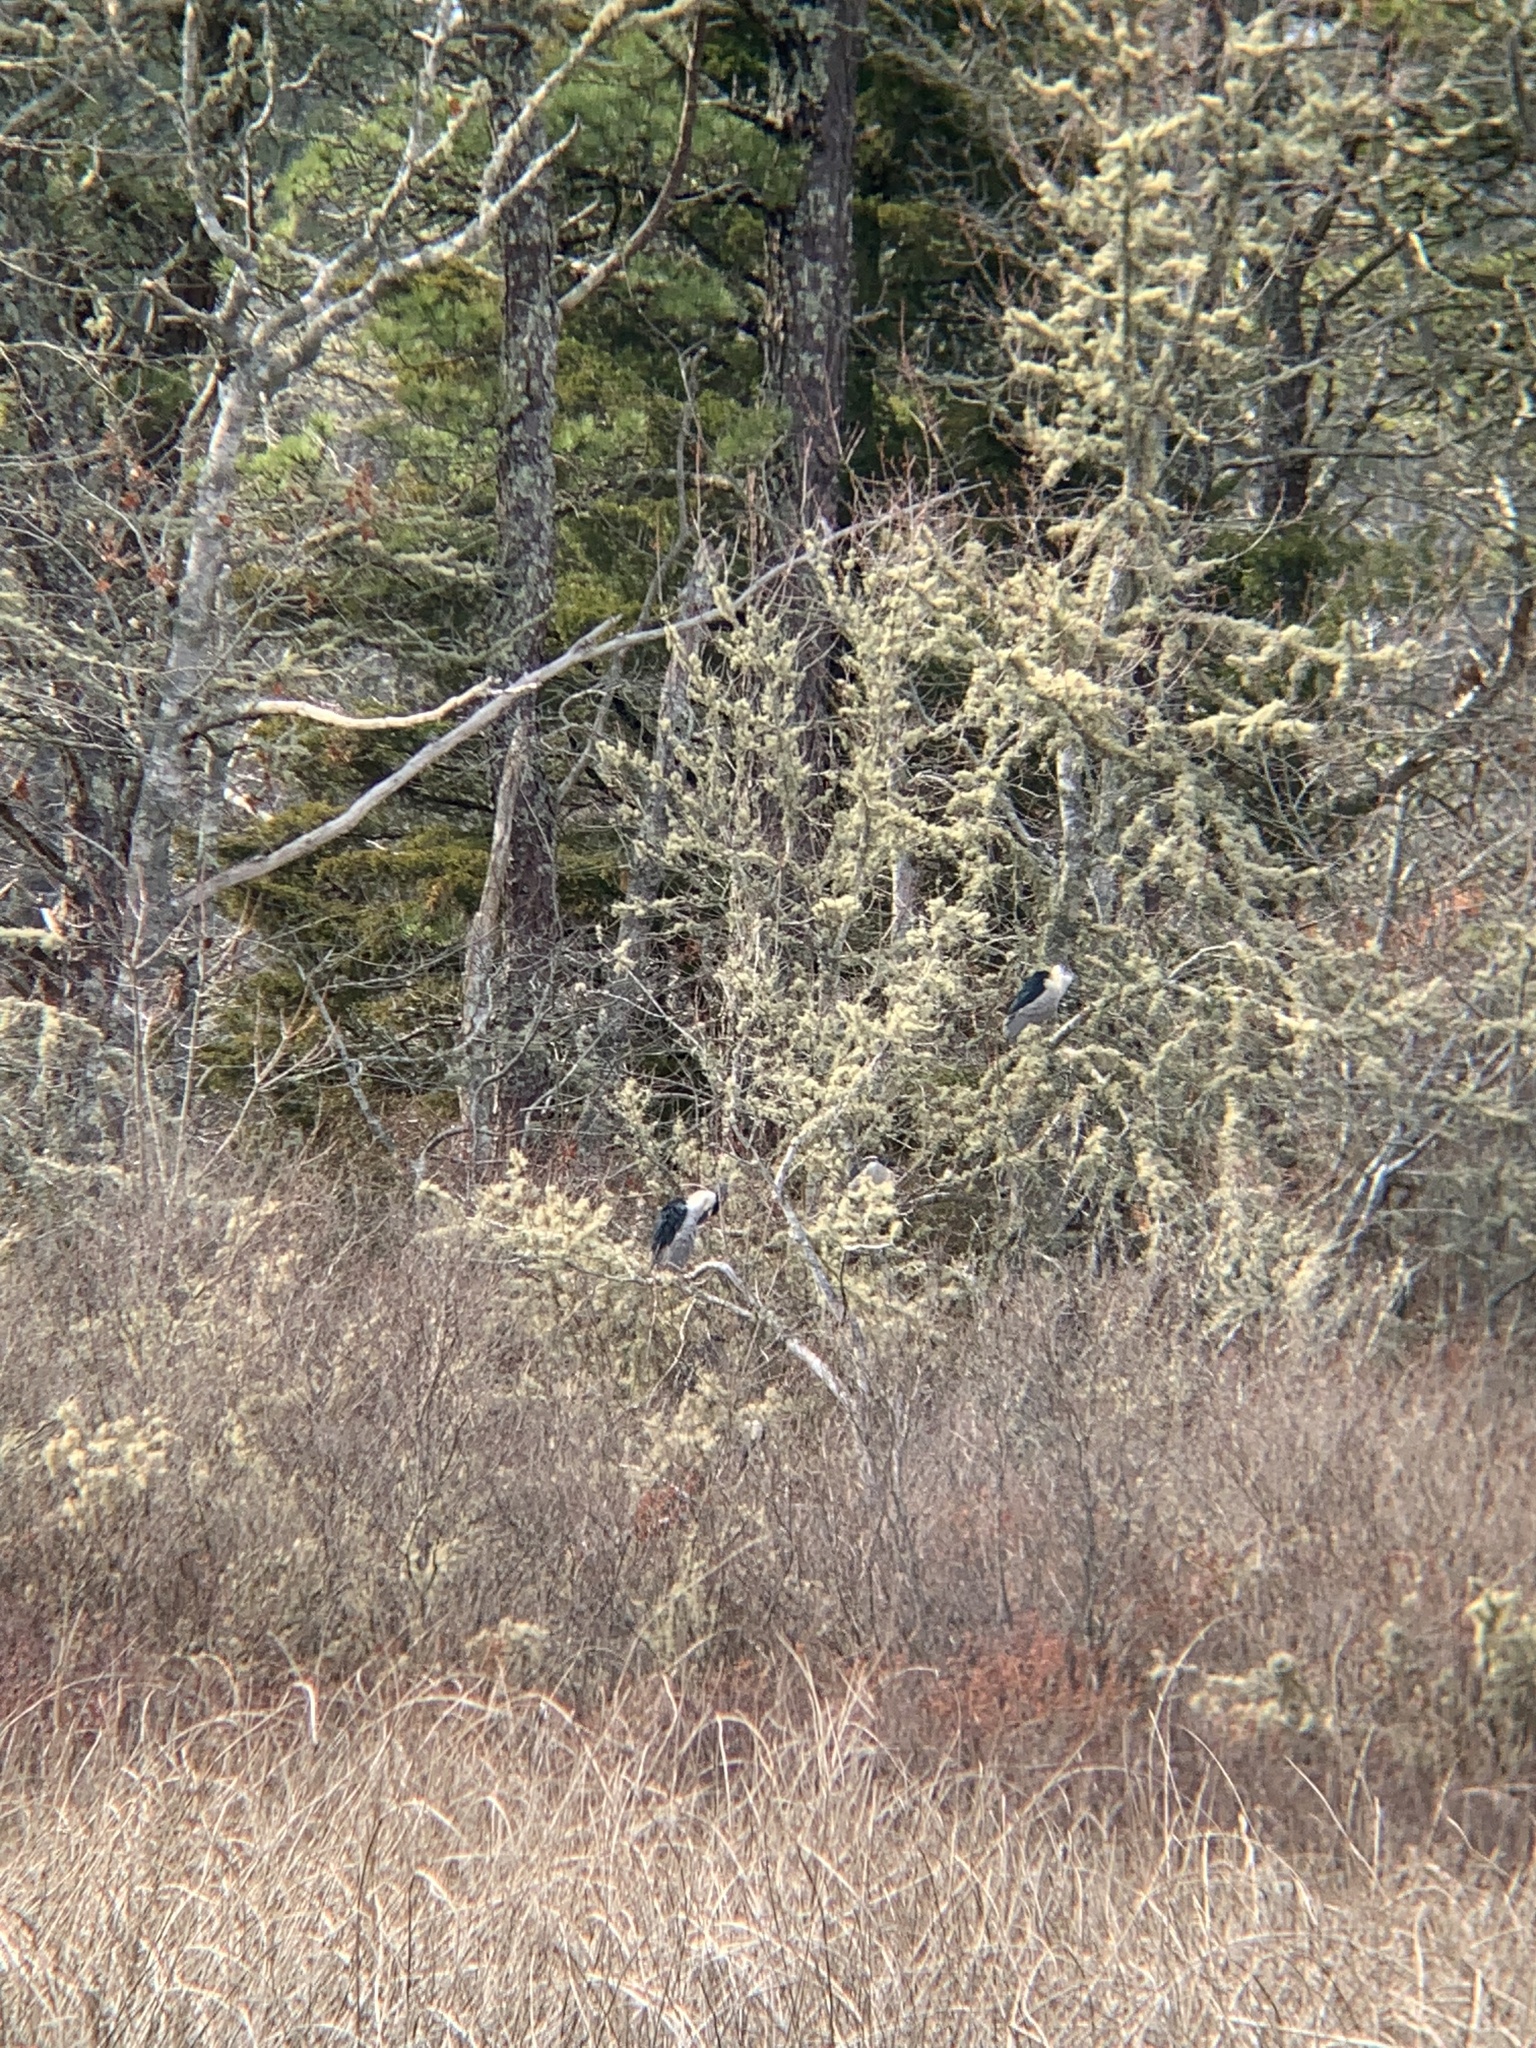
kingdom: Animalia
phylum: Chordata
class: Aves
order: Pelecaniformes
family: Ardeidae
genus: Nycticorax
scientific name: Nycticorax nycticorax
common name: Black-crowned night heron
